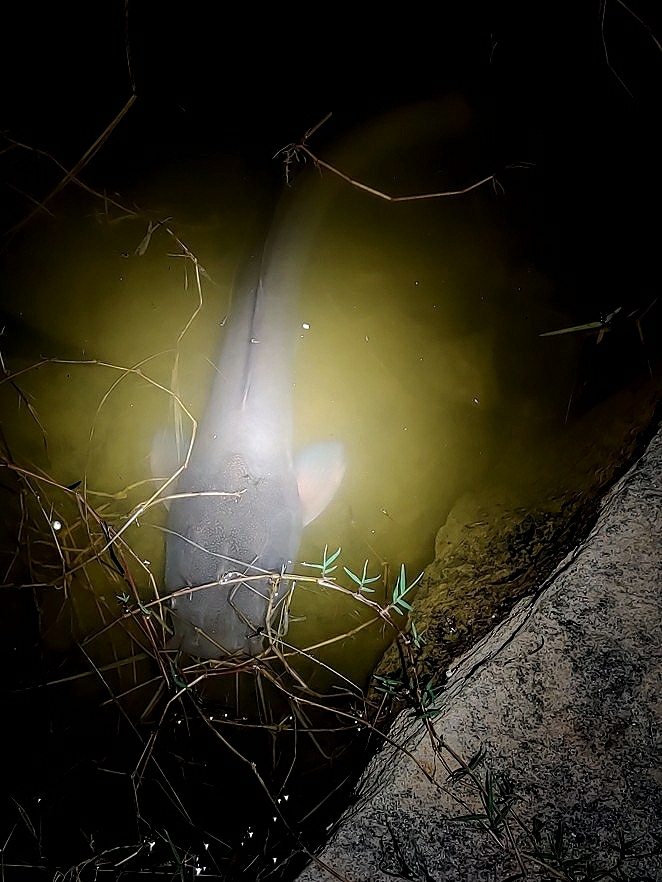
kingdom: Animalia
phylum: Chordata
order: Siluriformes
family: Clariidae
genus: Clarias
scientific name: Clarias gariepinus
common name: African catfish
